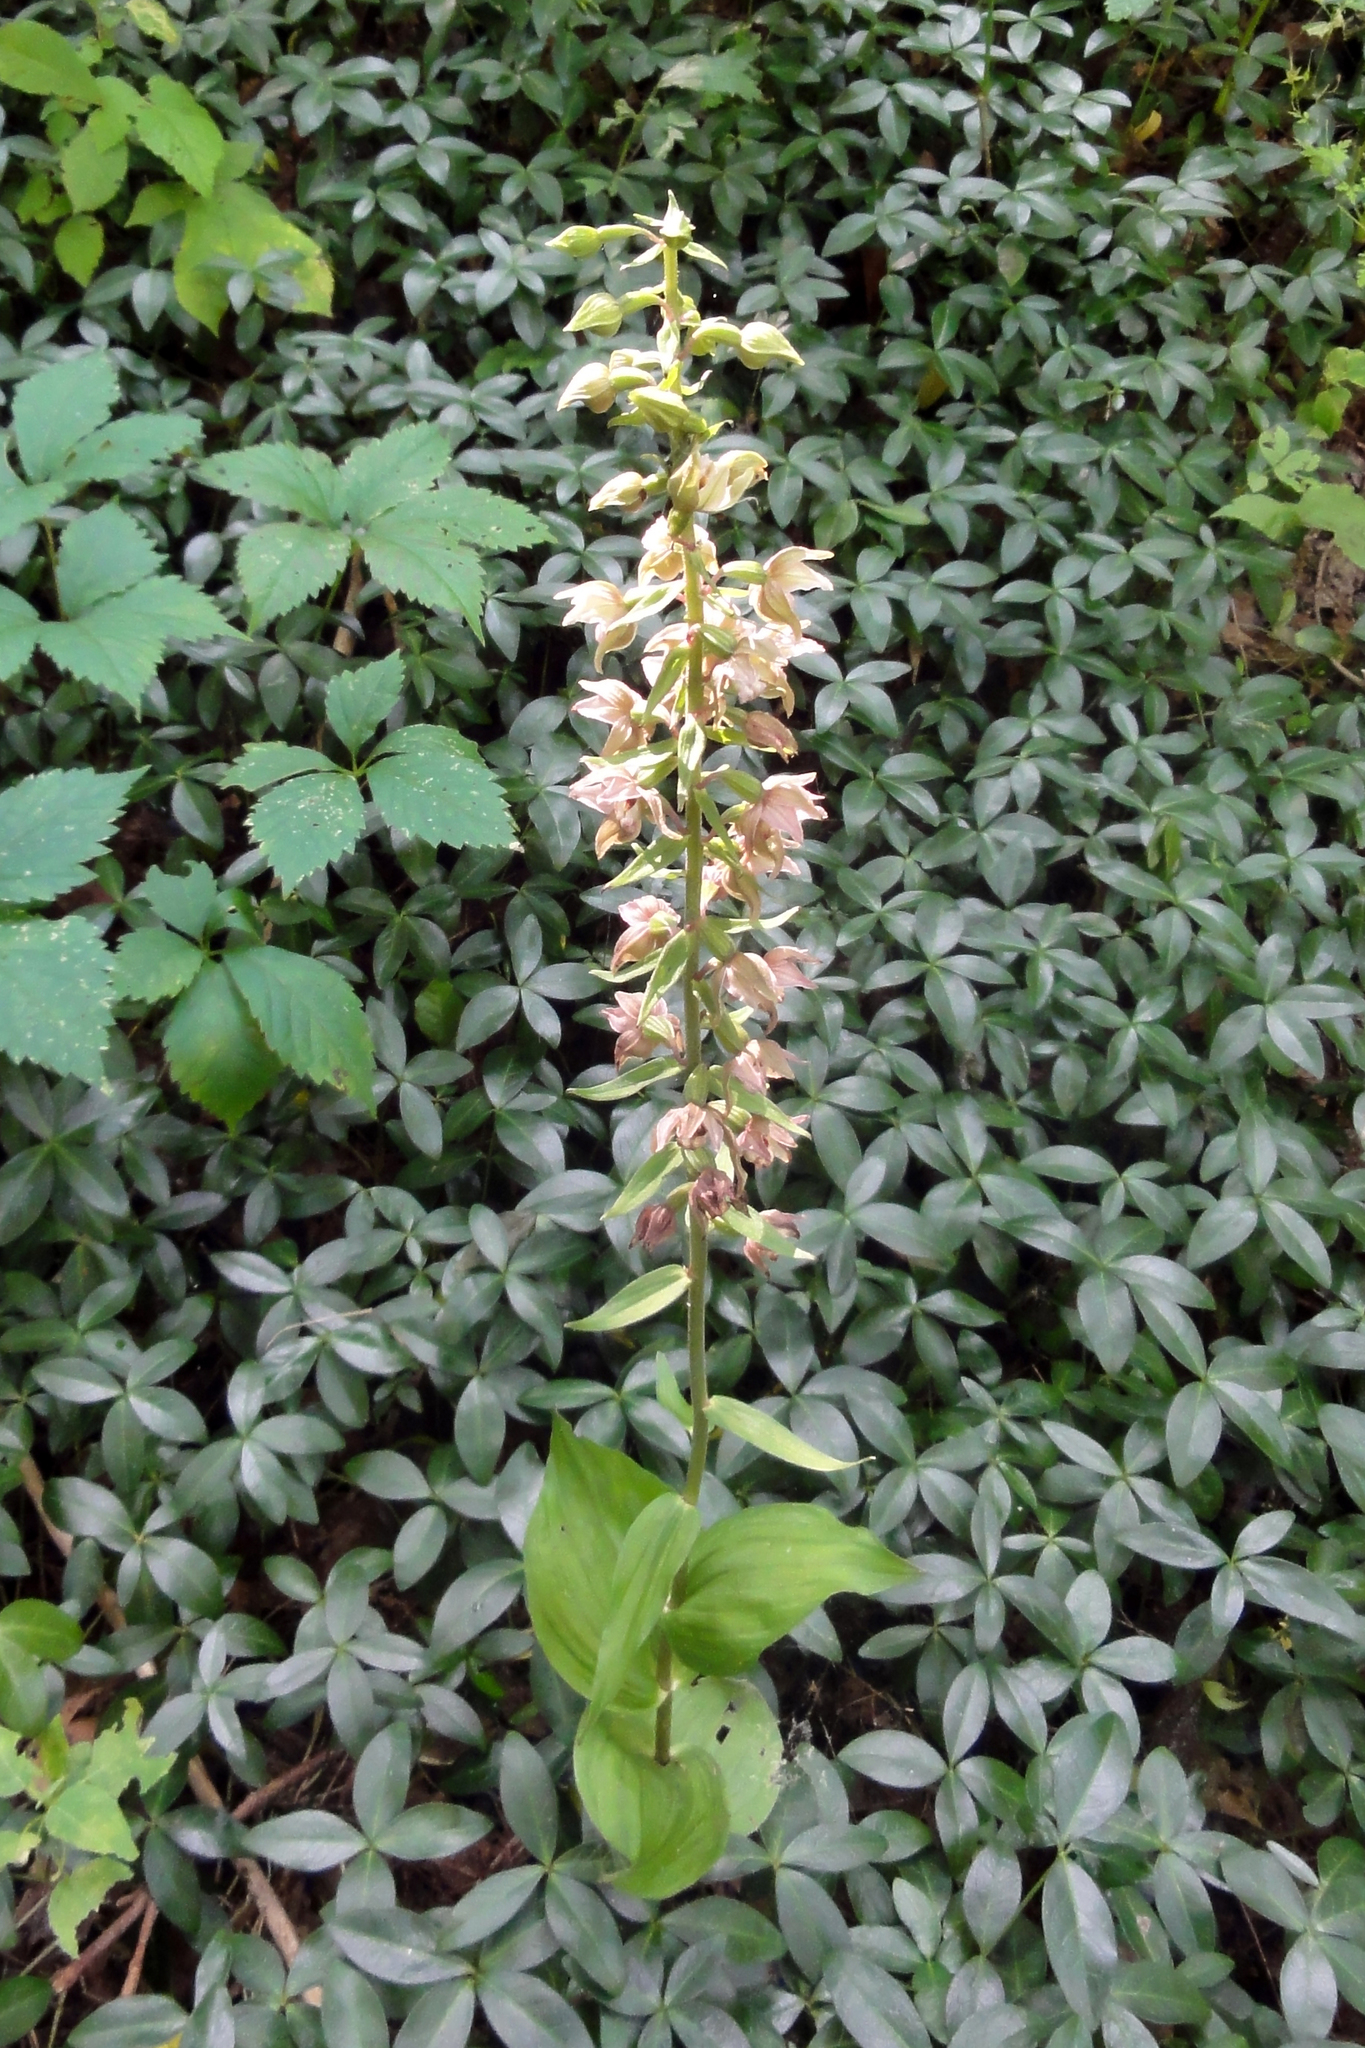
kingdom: Plantae
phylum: Tracheophyta
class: Liliopsida
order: Asparagales
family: Orchidaceae
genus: Epipactis
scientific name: Epipactis helleborine
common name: Broad-leaved helleborine
